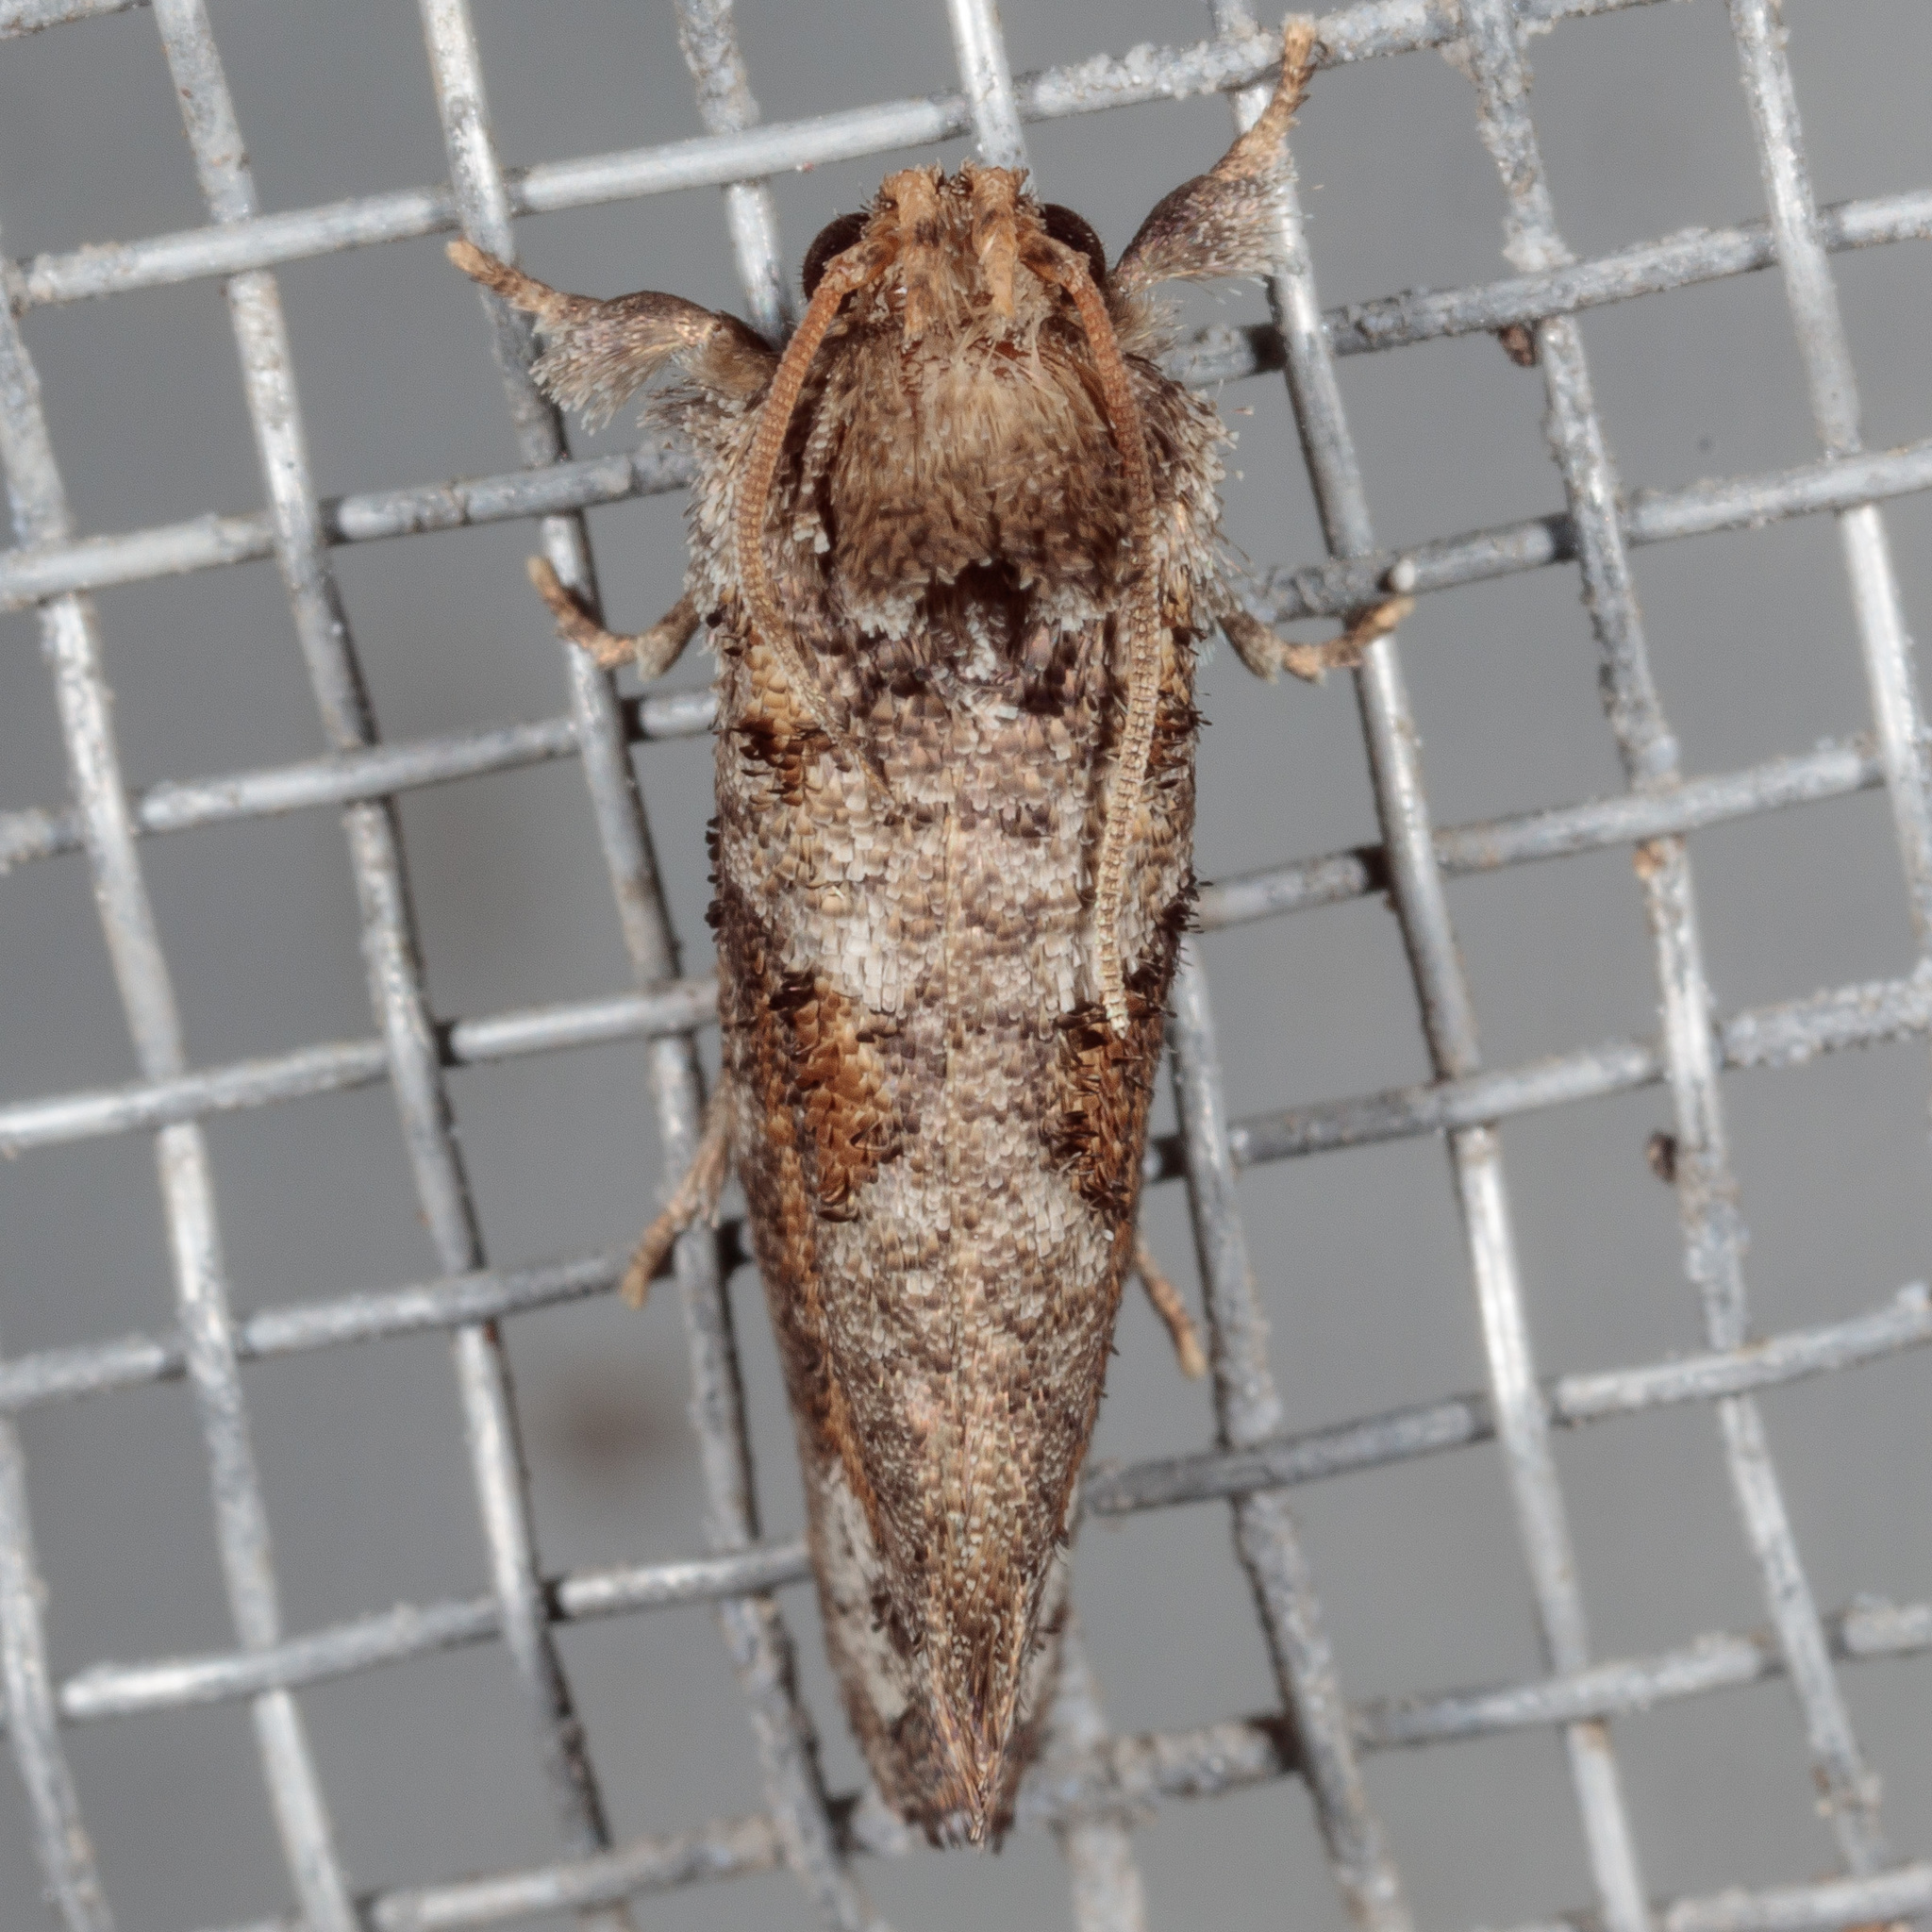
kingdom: Animalia
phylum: Arthropoda
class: Insecta
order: Lepidoptera
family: Tineidae
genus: Acrolophus
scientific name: Acrolophus piger
